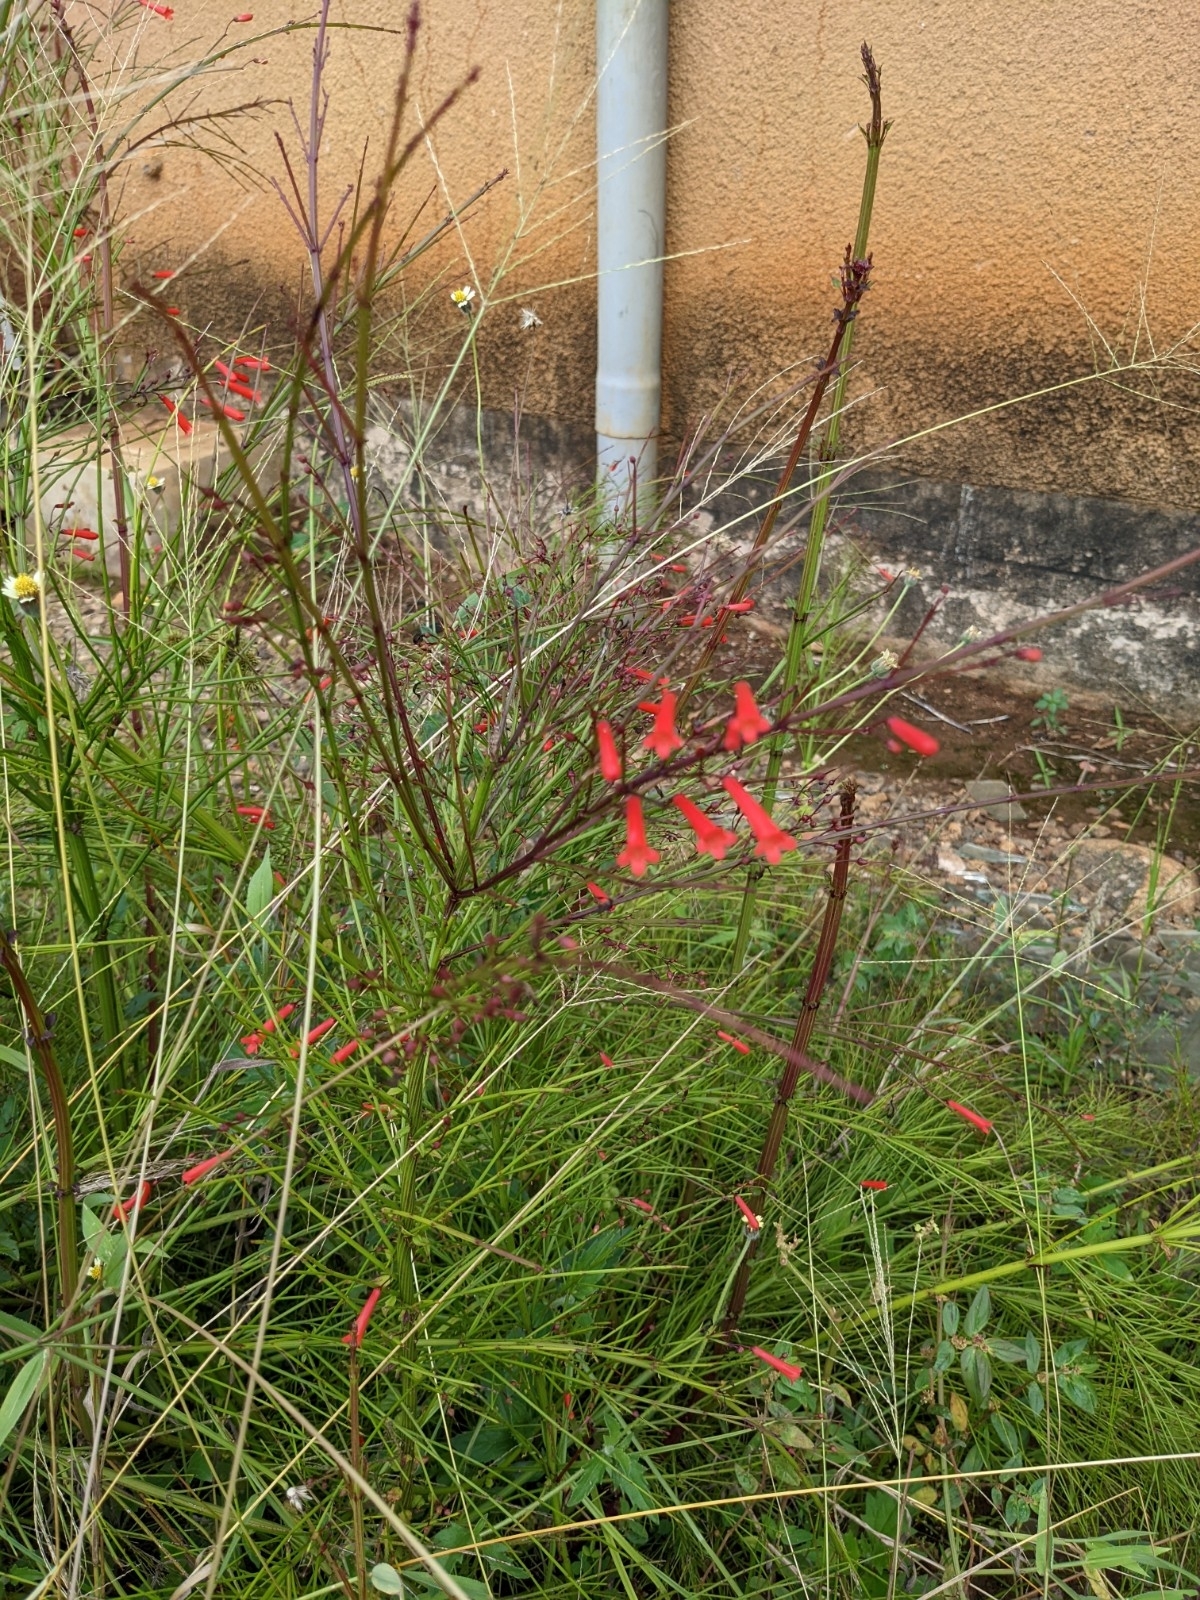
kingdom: Plantae
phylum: Tracheophyta
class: Magnoliopsida
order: Lamiales
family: Plantaginaceae
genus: Russelia
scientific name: Russelia equisetiformis
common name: Fountainbush
